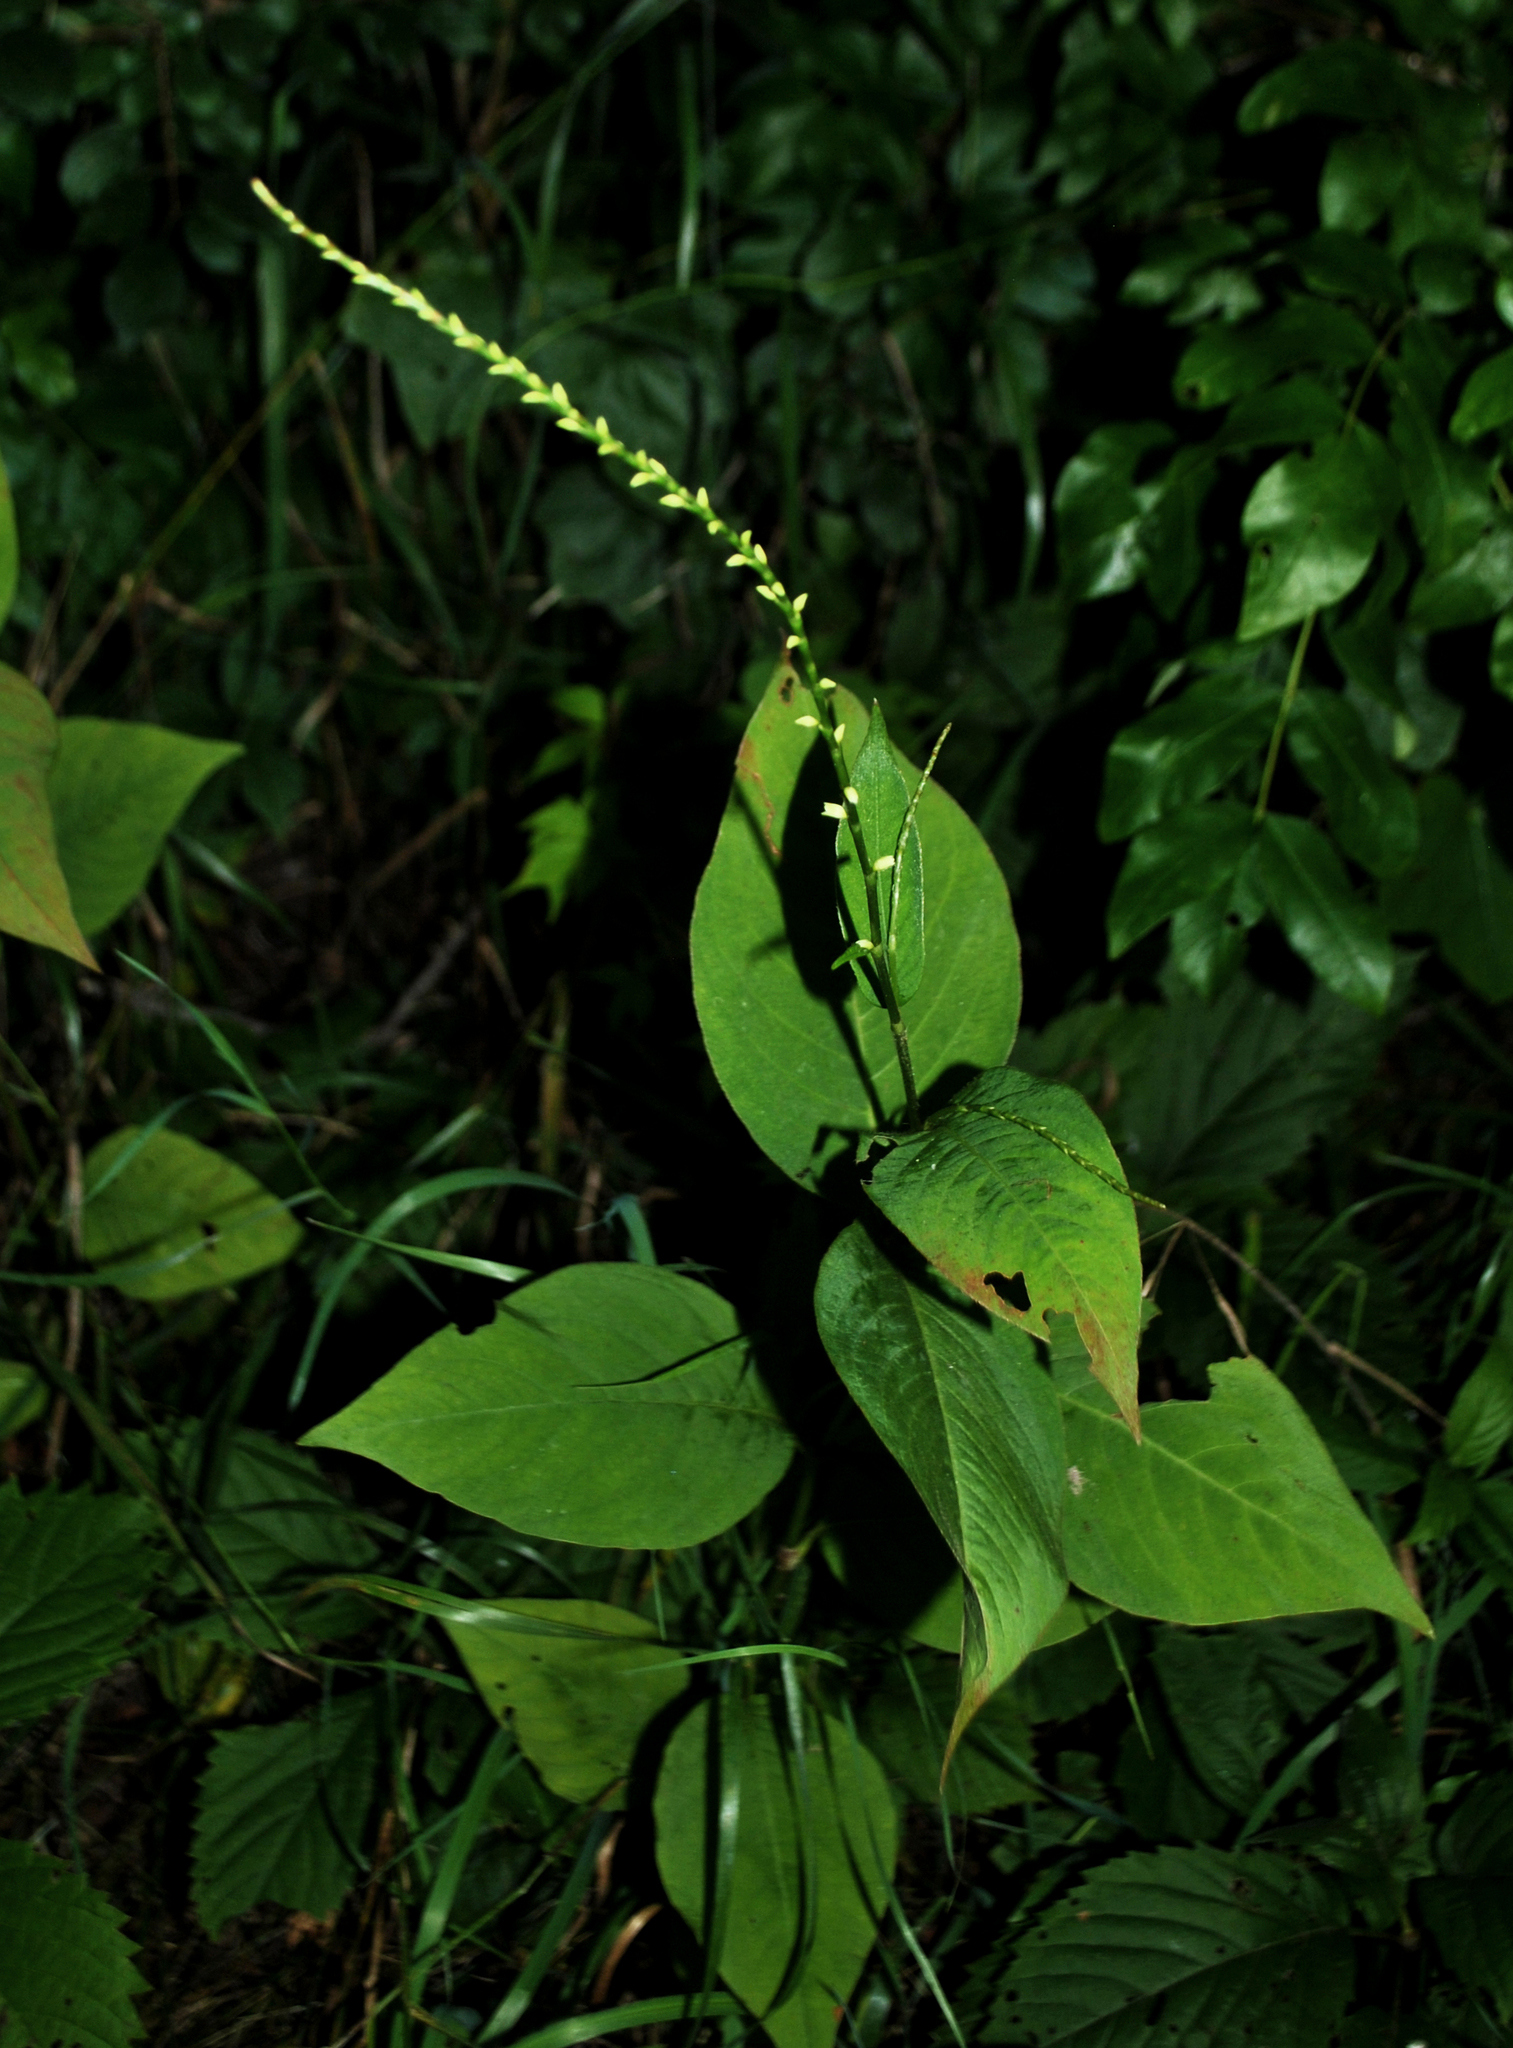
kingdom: Plantae
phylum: Tracheophyta
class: Magnoliopsida
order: Caryophyllales
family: Polygonaceae
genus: Persicaria
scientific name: Persicaria virginiana
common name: Jumpseed
